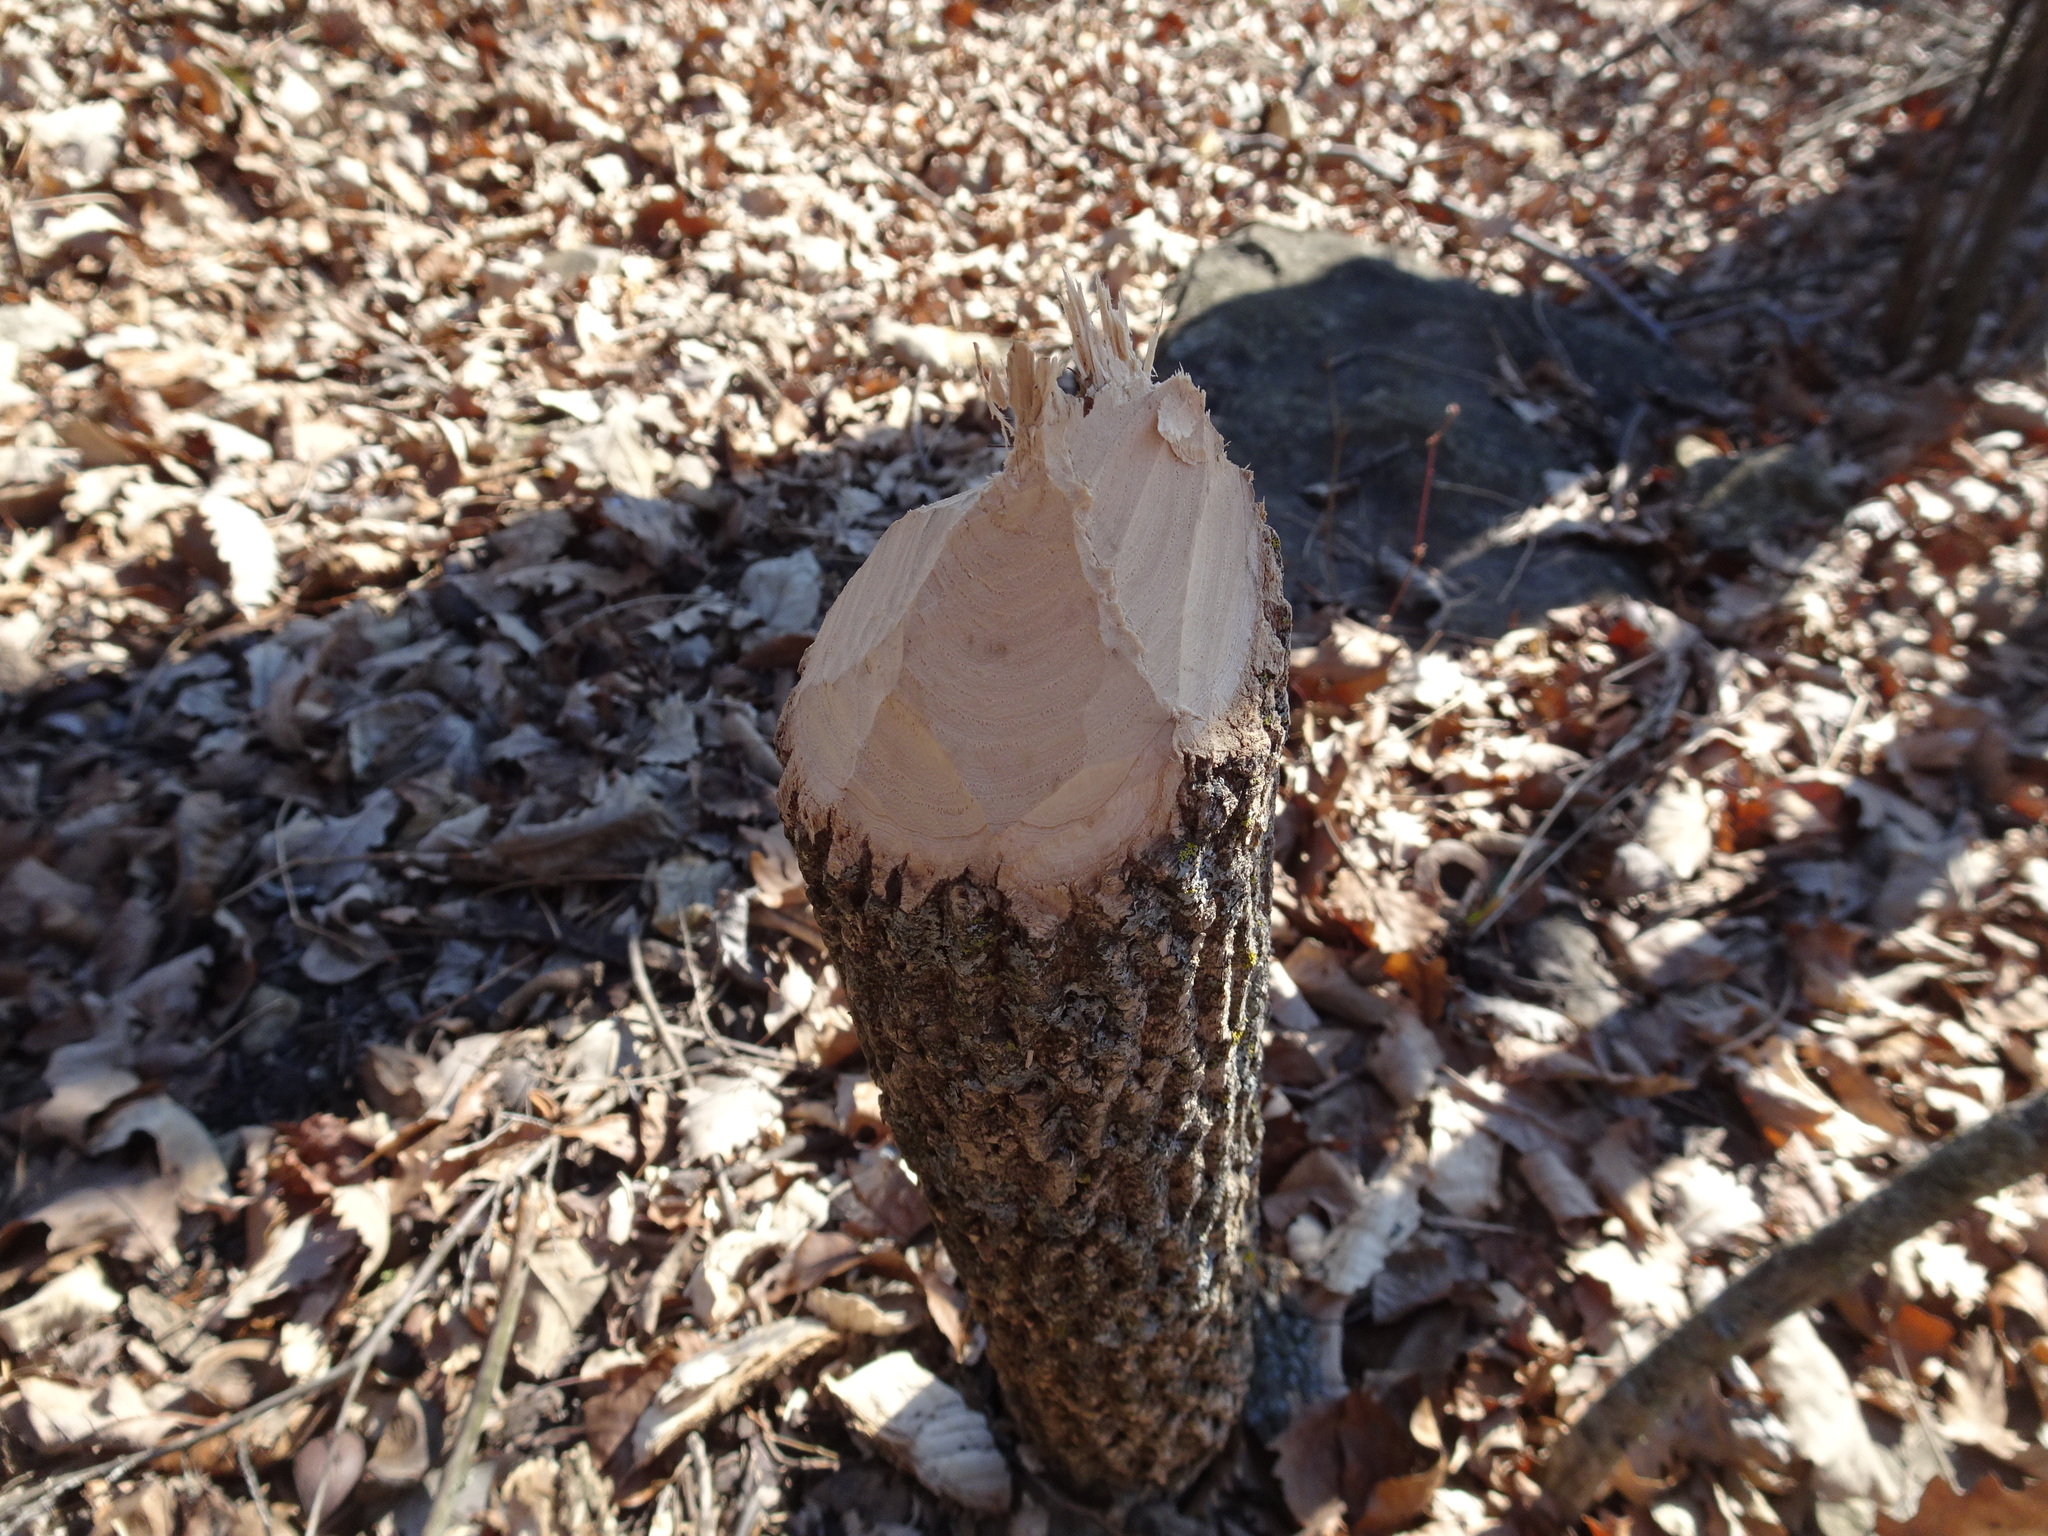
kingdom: Animalia
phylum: Chordata
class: Mammalia
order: Rodentia
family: Castoridae
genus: Castor
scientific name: Castor canadensis
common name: American beaver
